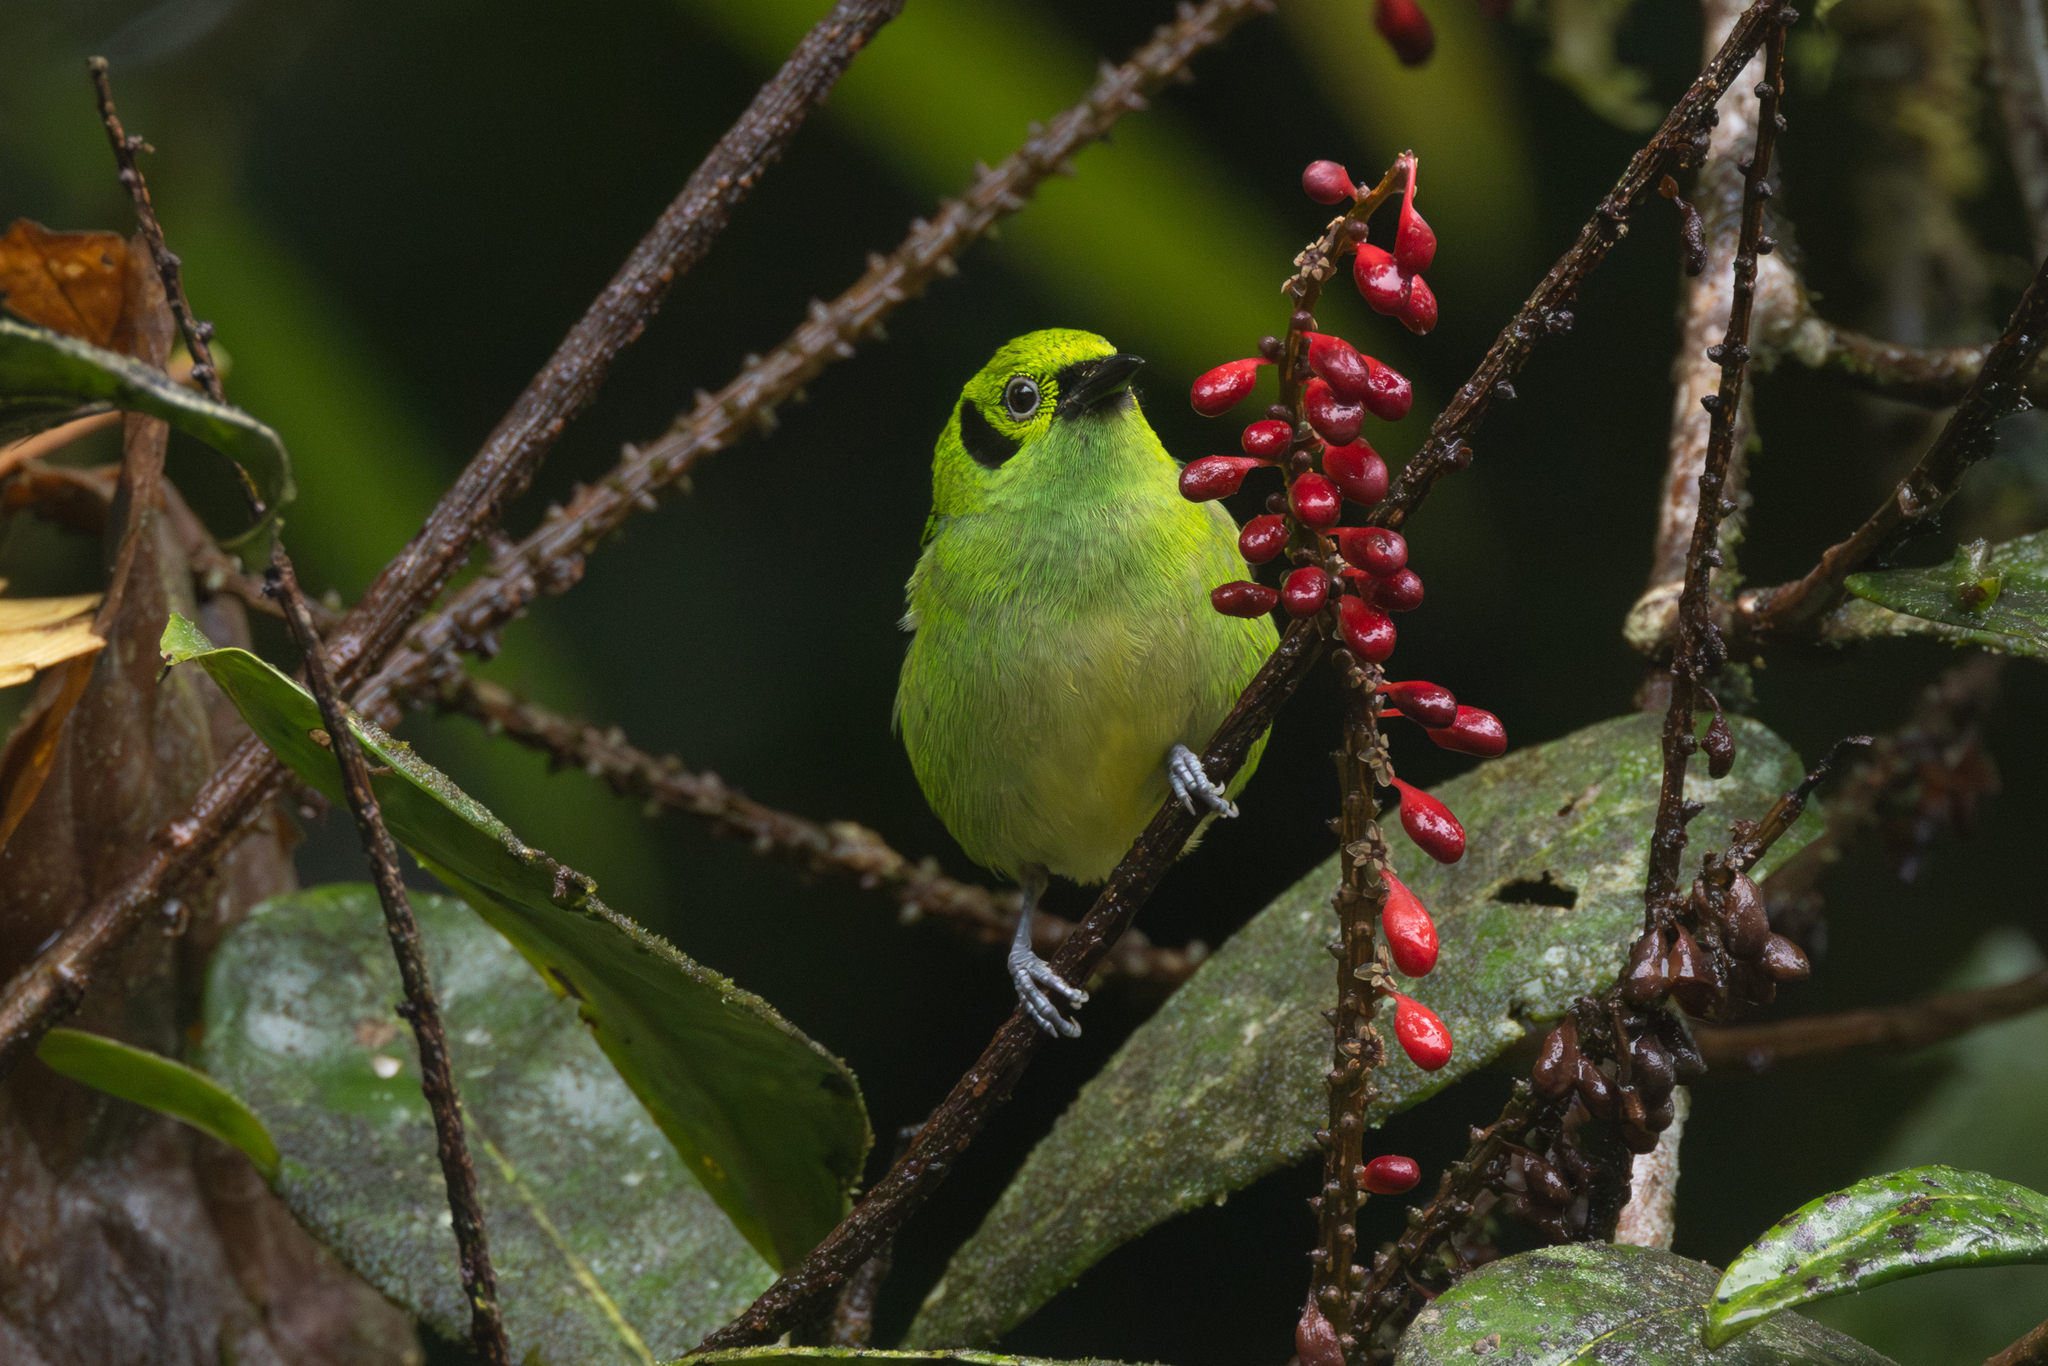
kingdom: Animalia
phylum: Chordata
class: Aves
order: Passeriformes
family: Thraupidae
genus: Tangara
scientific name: Tangara florida
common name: Emerald tanager
